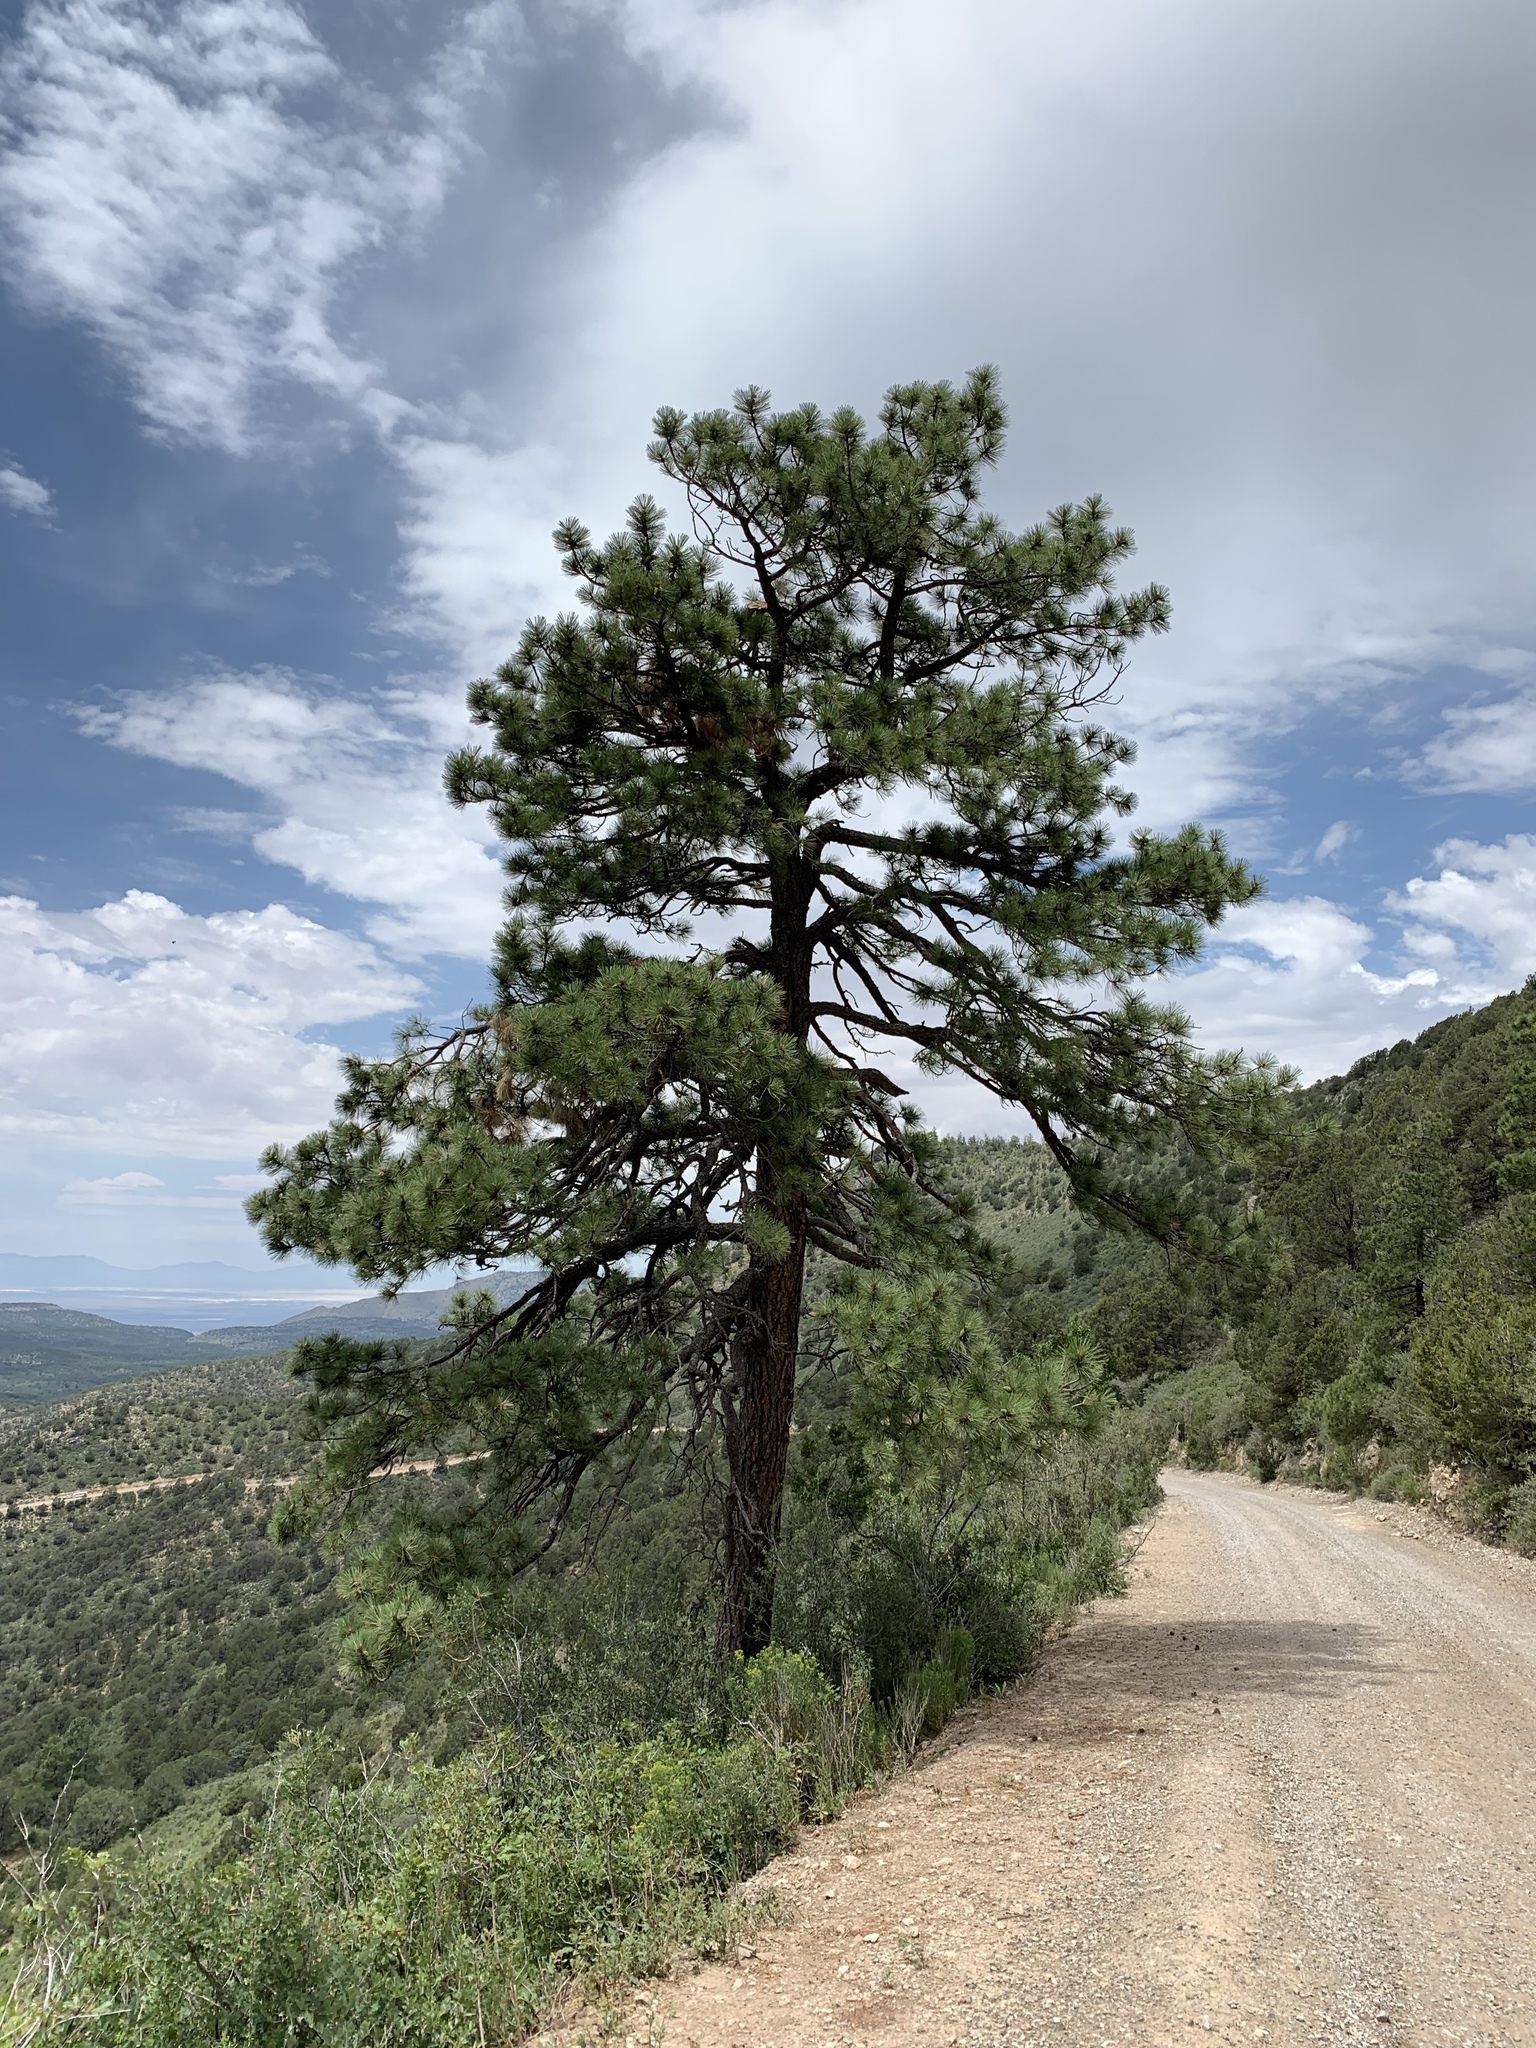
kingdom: Plantae
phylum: Tracheophyta
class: Pinopsida
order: Pinales
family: Pinaceae
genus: Pinus
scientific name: Pinus ponderosa
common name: Western yellow-pine
